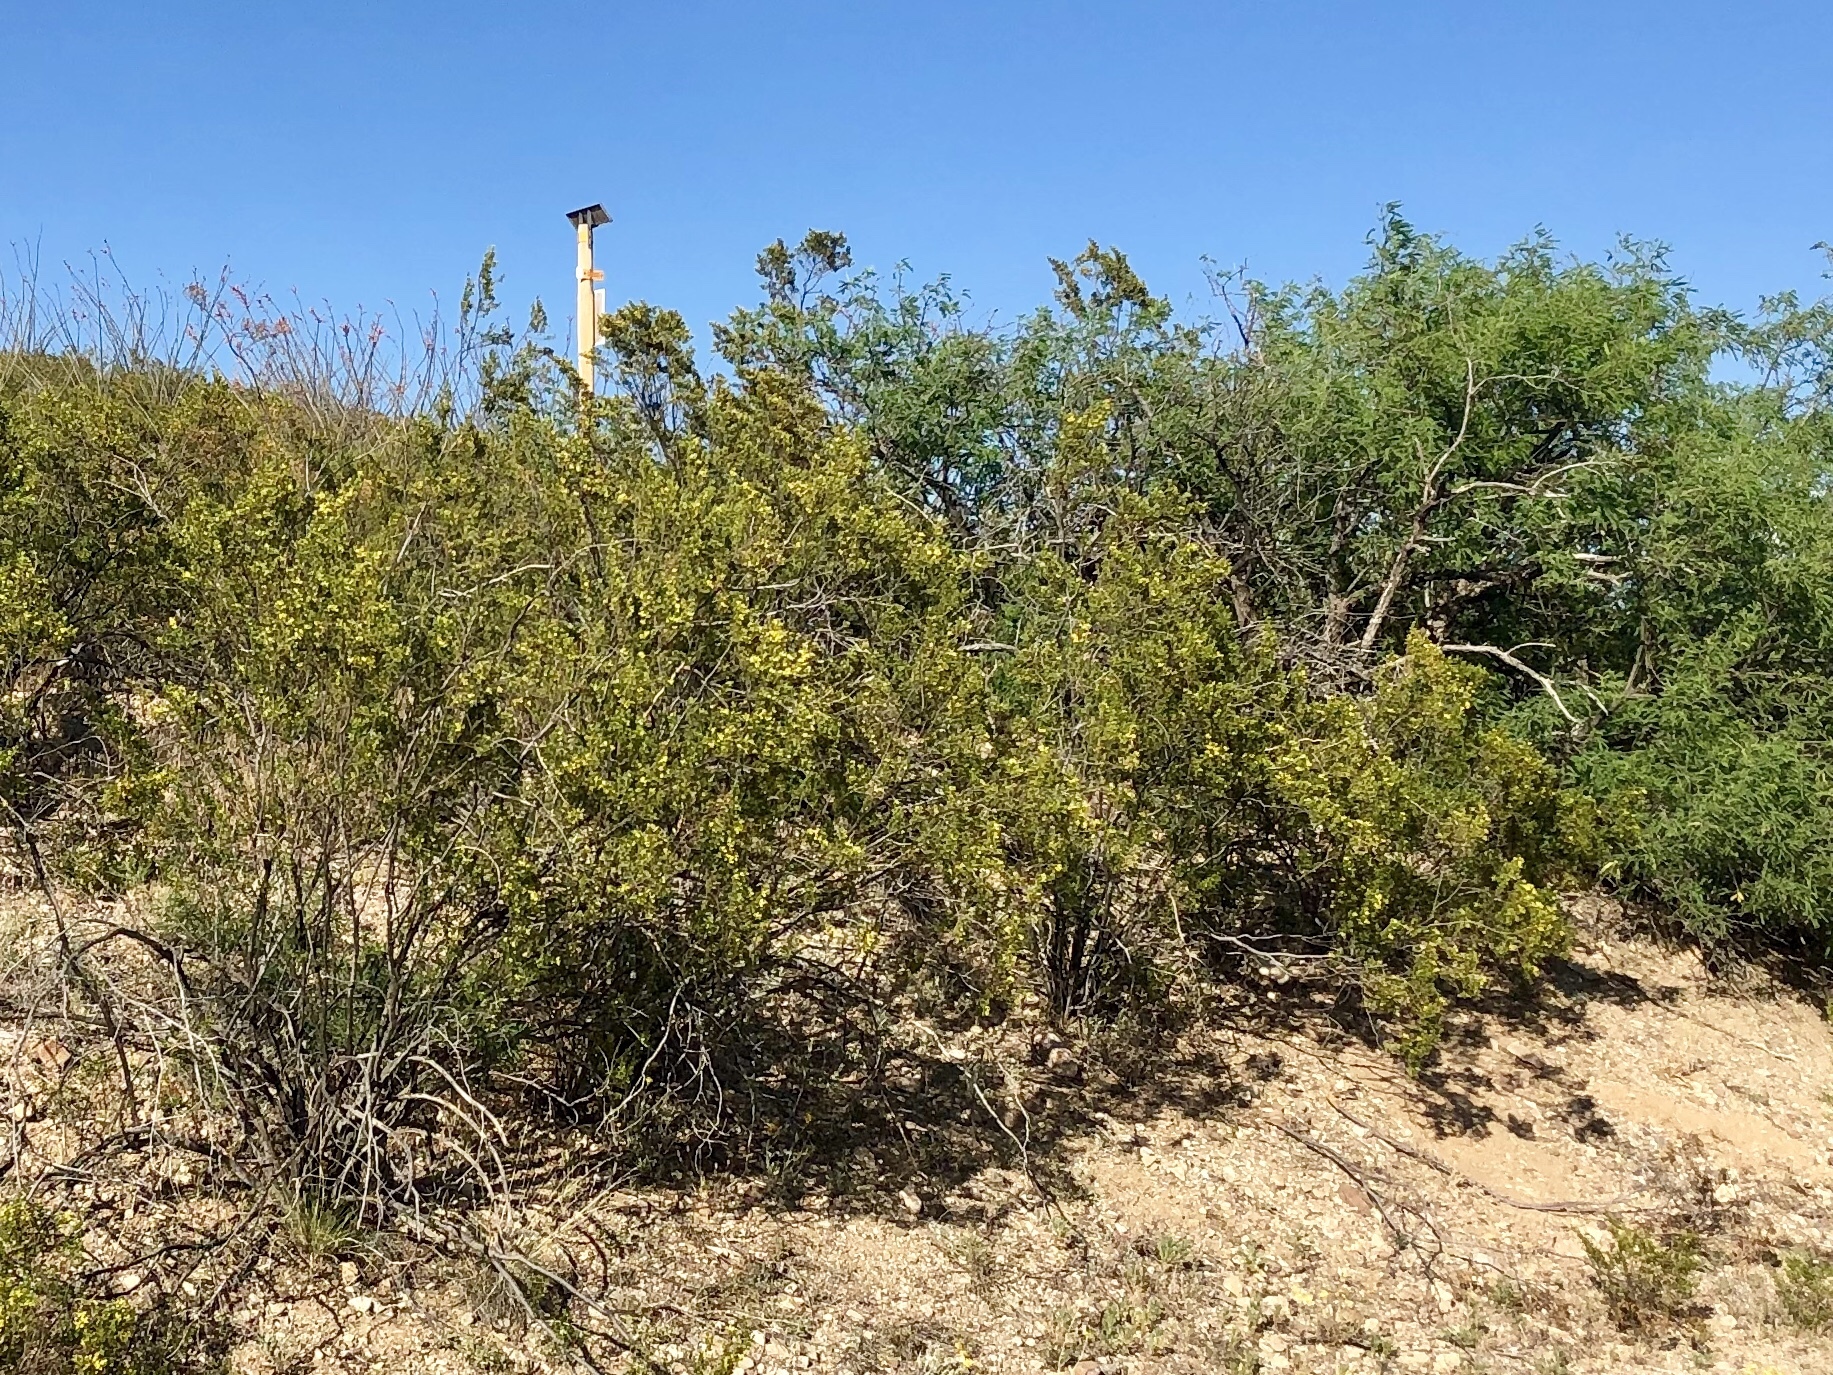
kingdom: Plantae
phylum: Tracheophyta
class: Magnoliopsida
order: Zygophyllales
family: Zygophyllaceae
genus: Larrea
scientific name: Larrea tridentata
